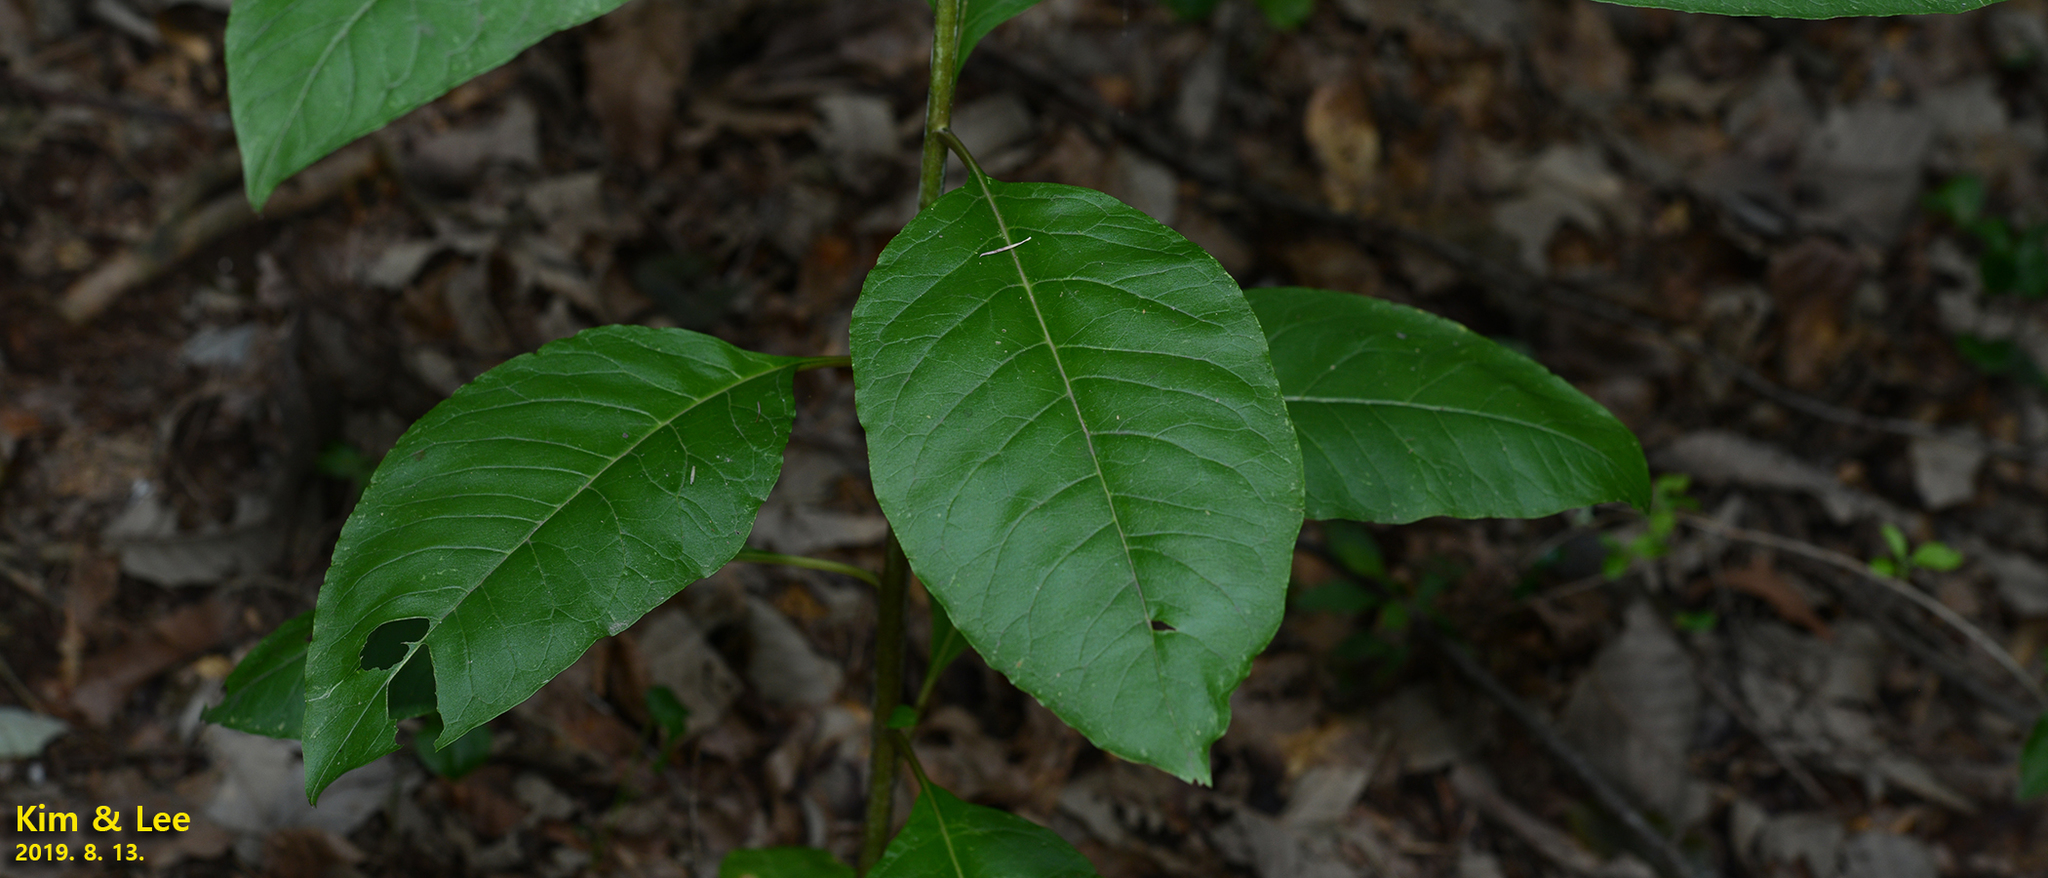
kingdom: Plantae
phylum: Tracheophyta
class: Magnoliopsida
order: Caryophyllales
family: Phytolaccaceae
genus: Phytolacca
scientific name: Phytolacca americana
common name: American pokeweed
